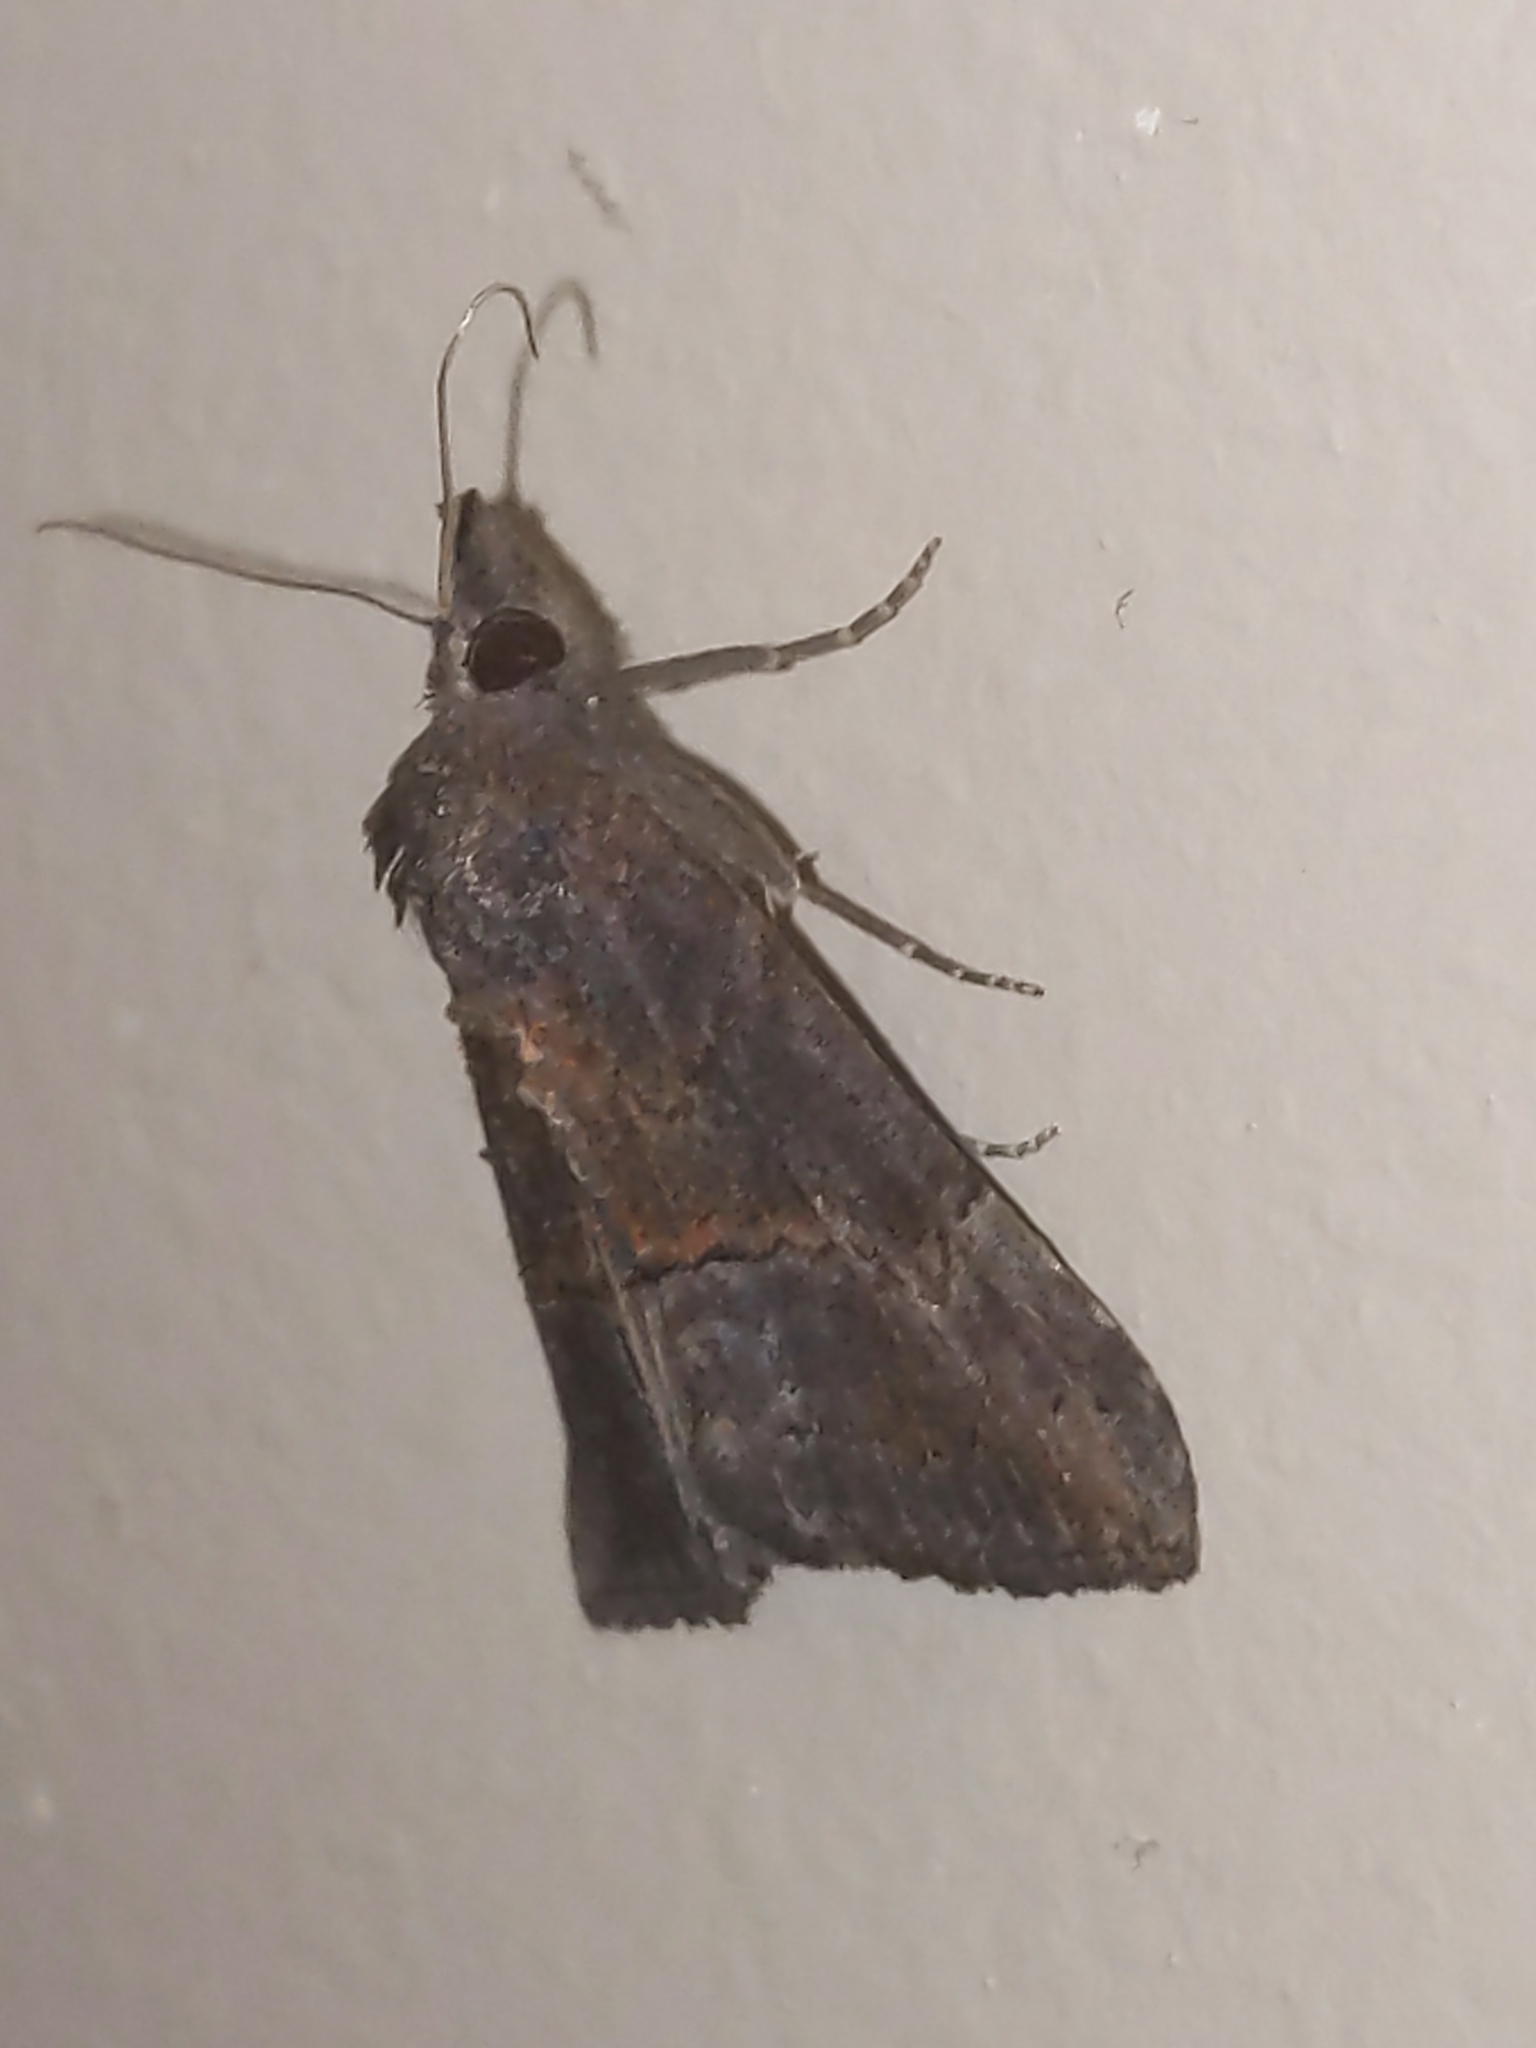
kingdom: Animalia
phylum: Arthropoda
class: Insecta
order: Lepidoptera
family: Erebidae
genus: Hypena
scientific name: Hypena scabra
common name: Green cloverworm
